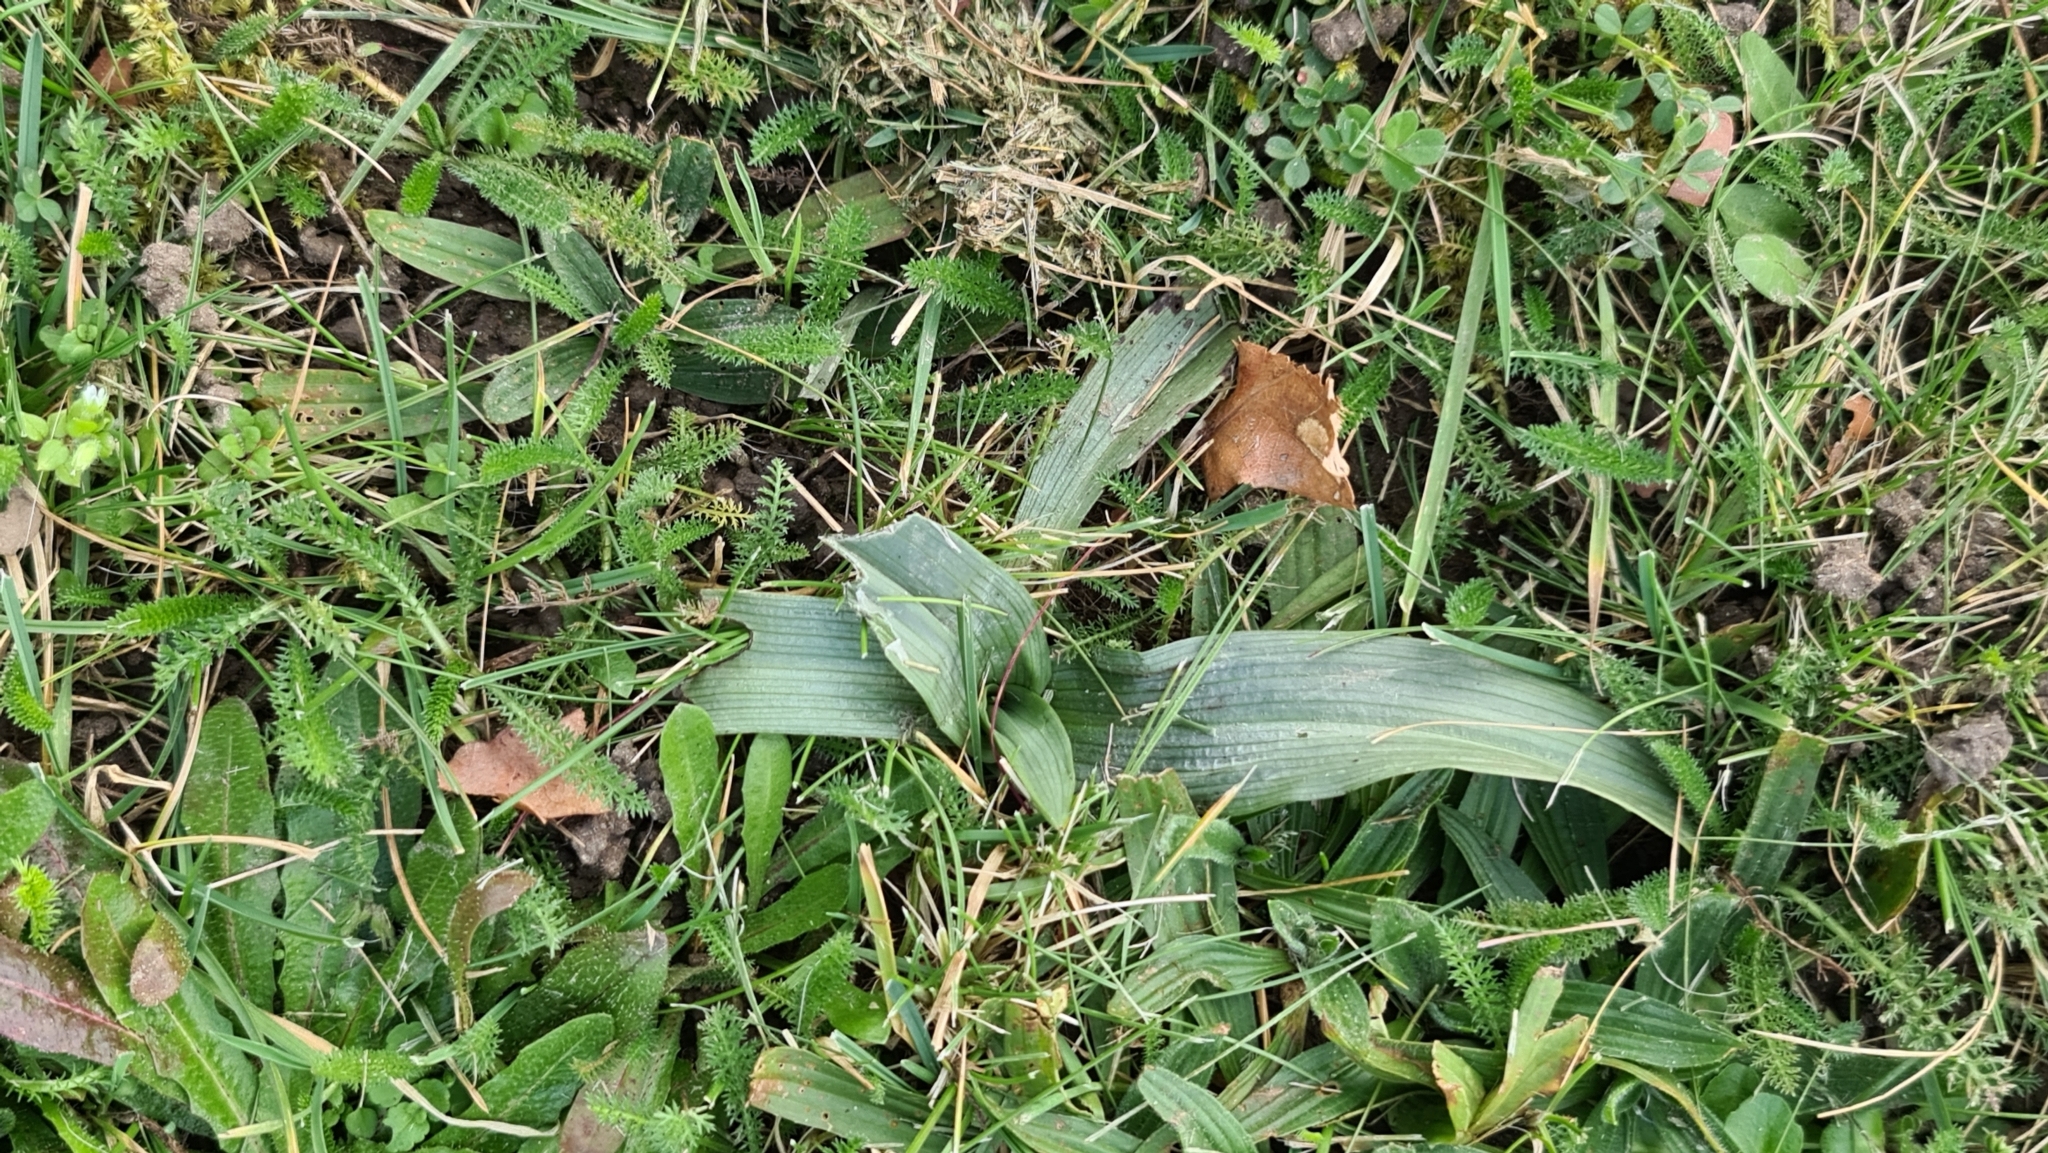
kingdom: Plantae
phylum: Tracheophyta
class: Liliopsida
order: Asparagales
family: Orchidaceae
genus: Ophrys
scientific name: Ophrys apifera
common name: Bee orchid
